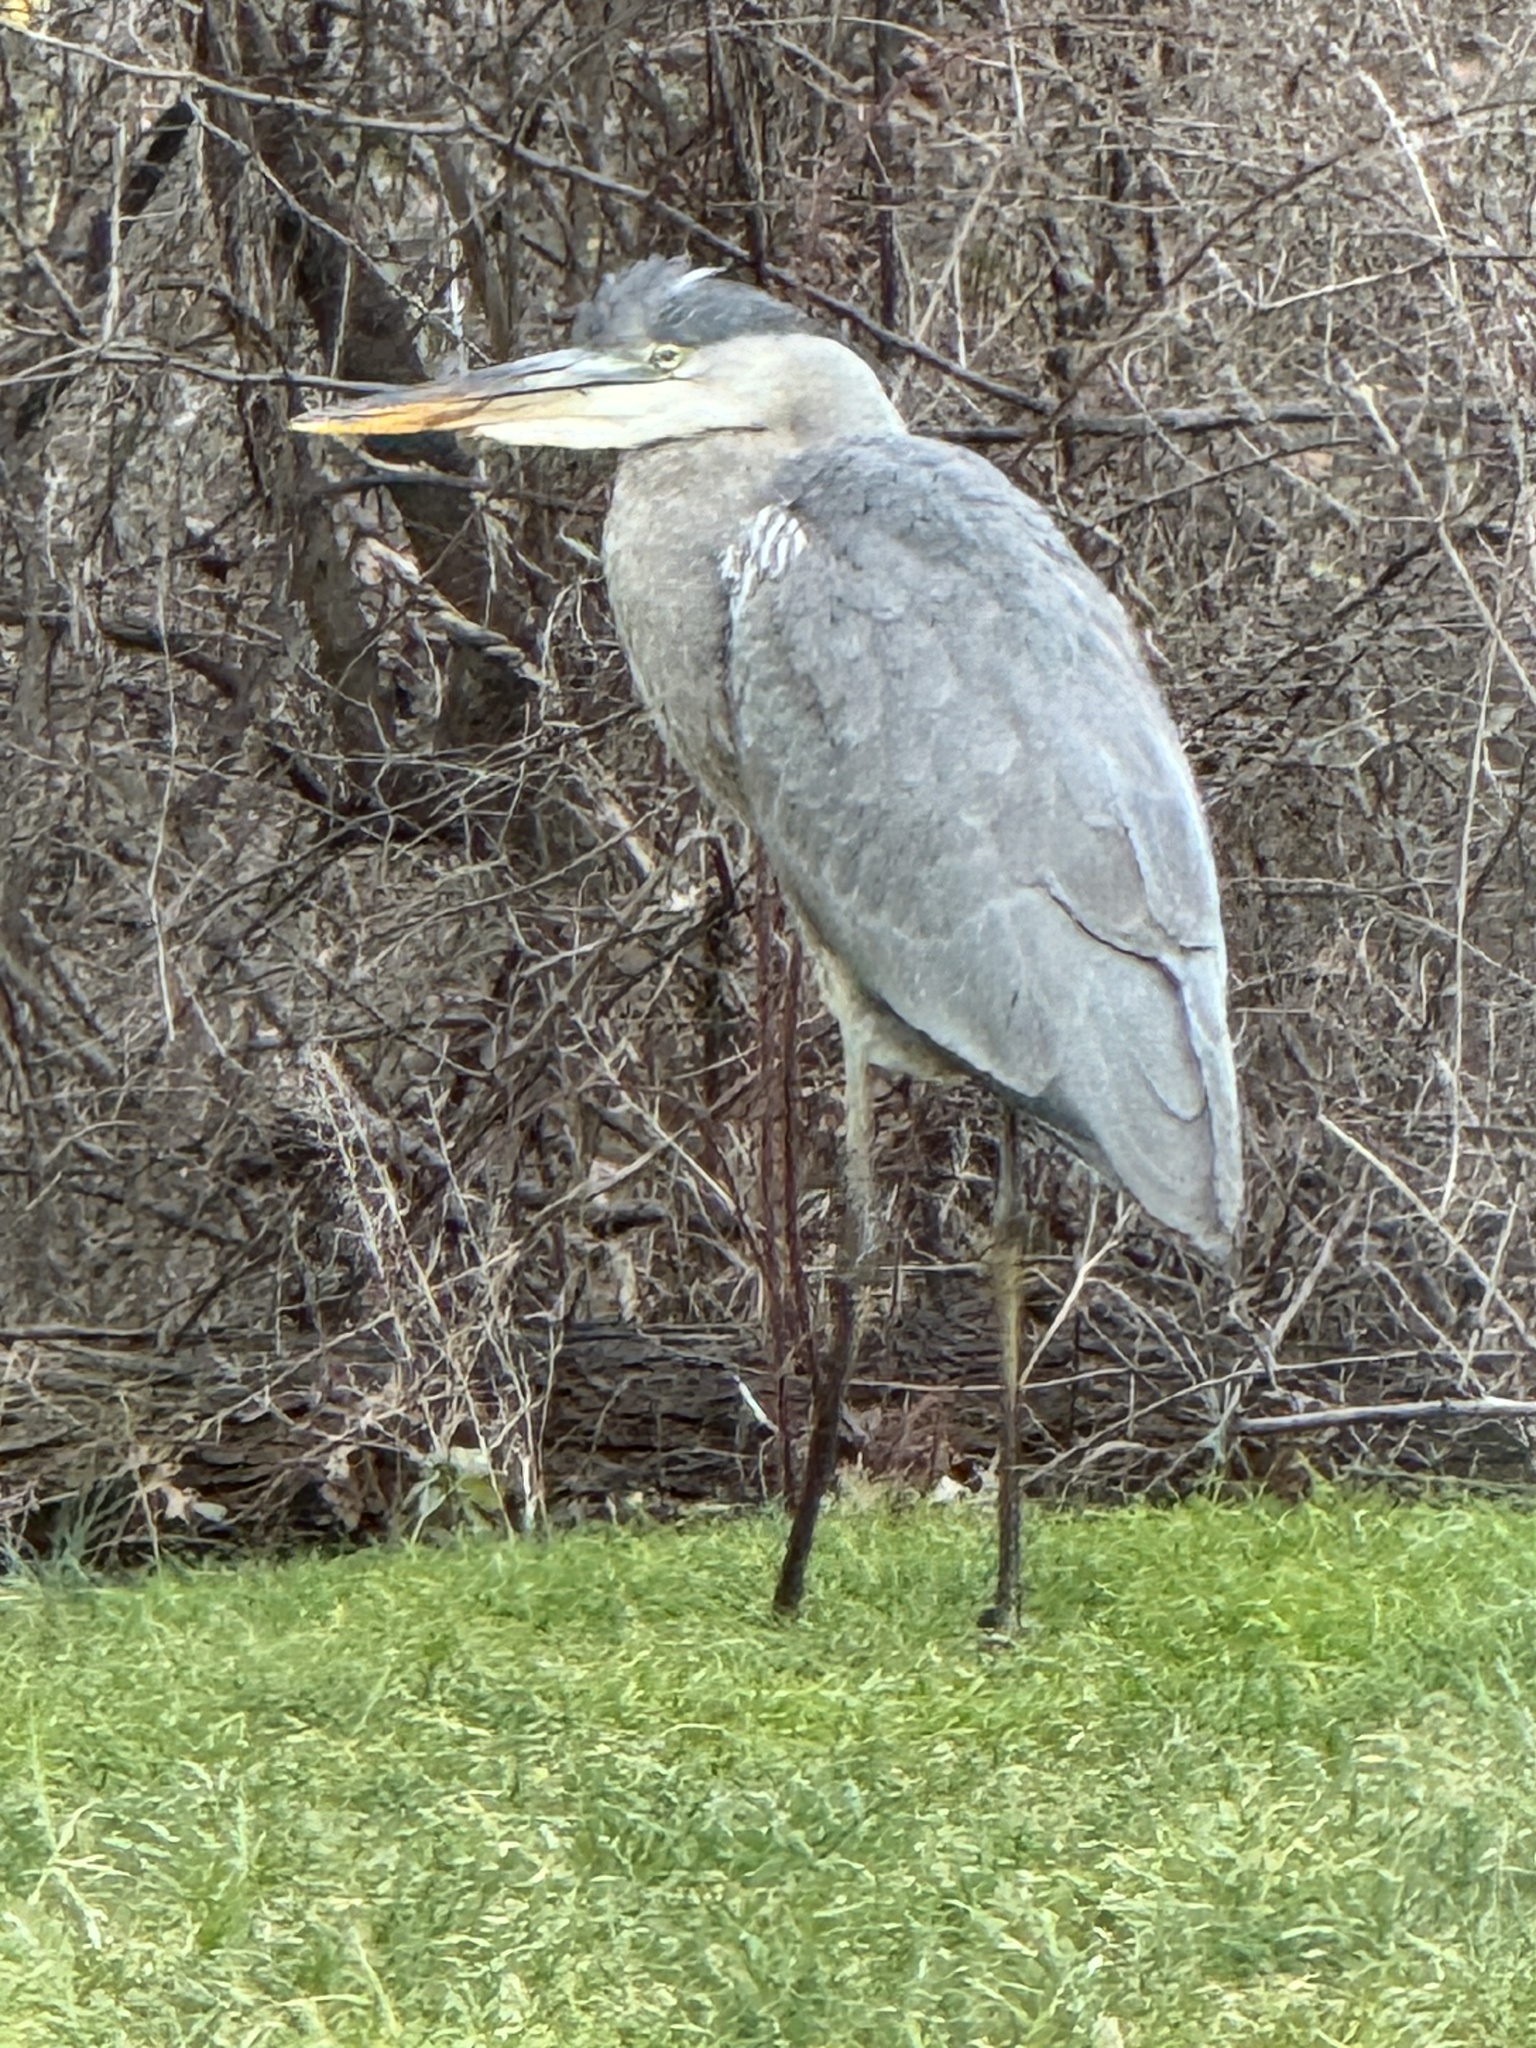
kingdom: Animalia
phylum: Chordata
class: Aves
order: Pelecaniformes
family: Ardeidae
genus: Ardea
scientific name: Ardea herodias
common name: Great blue heron
